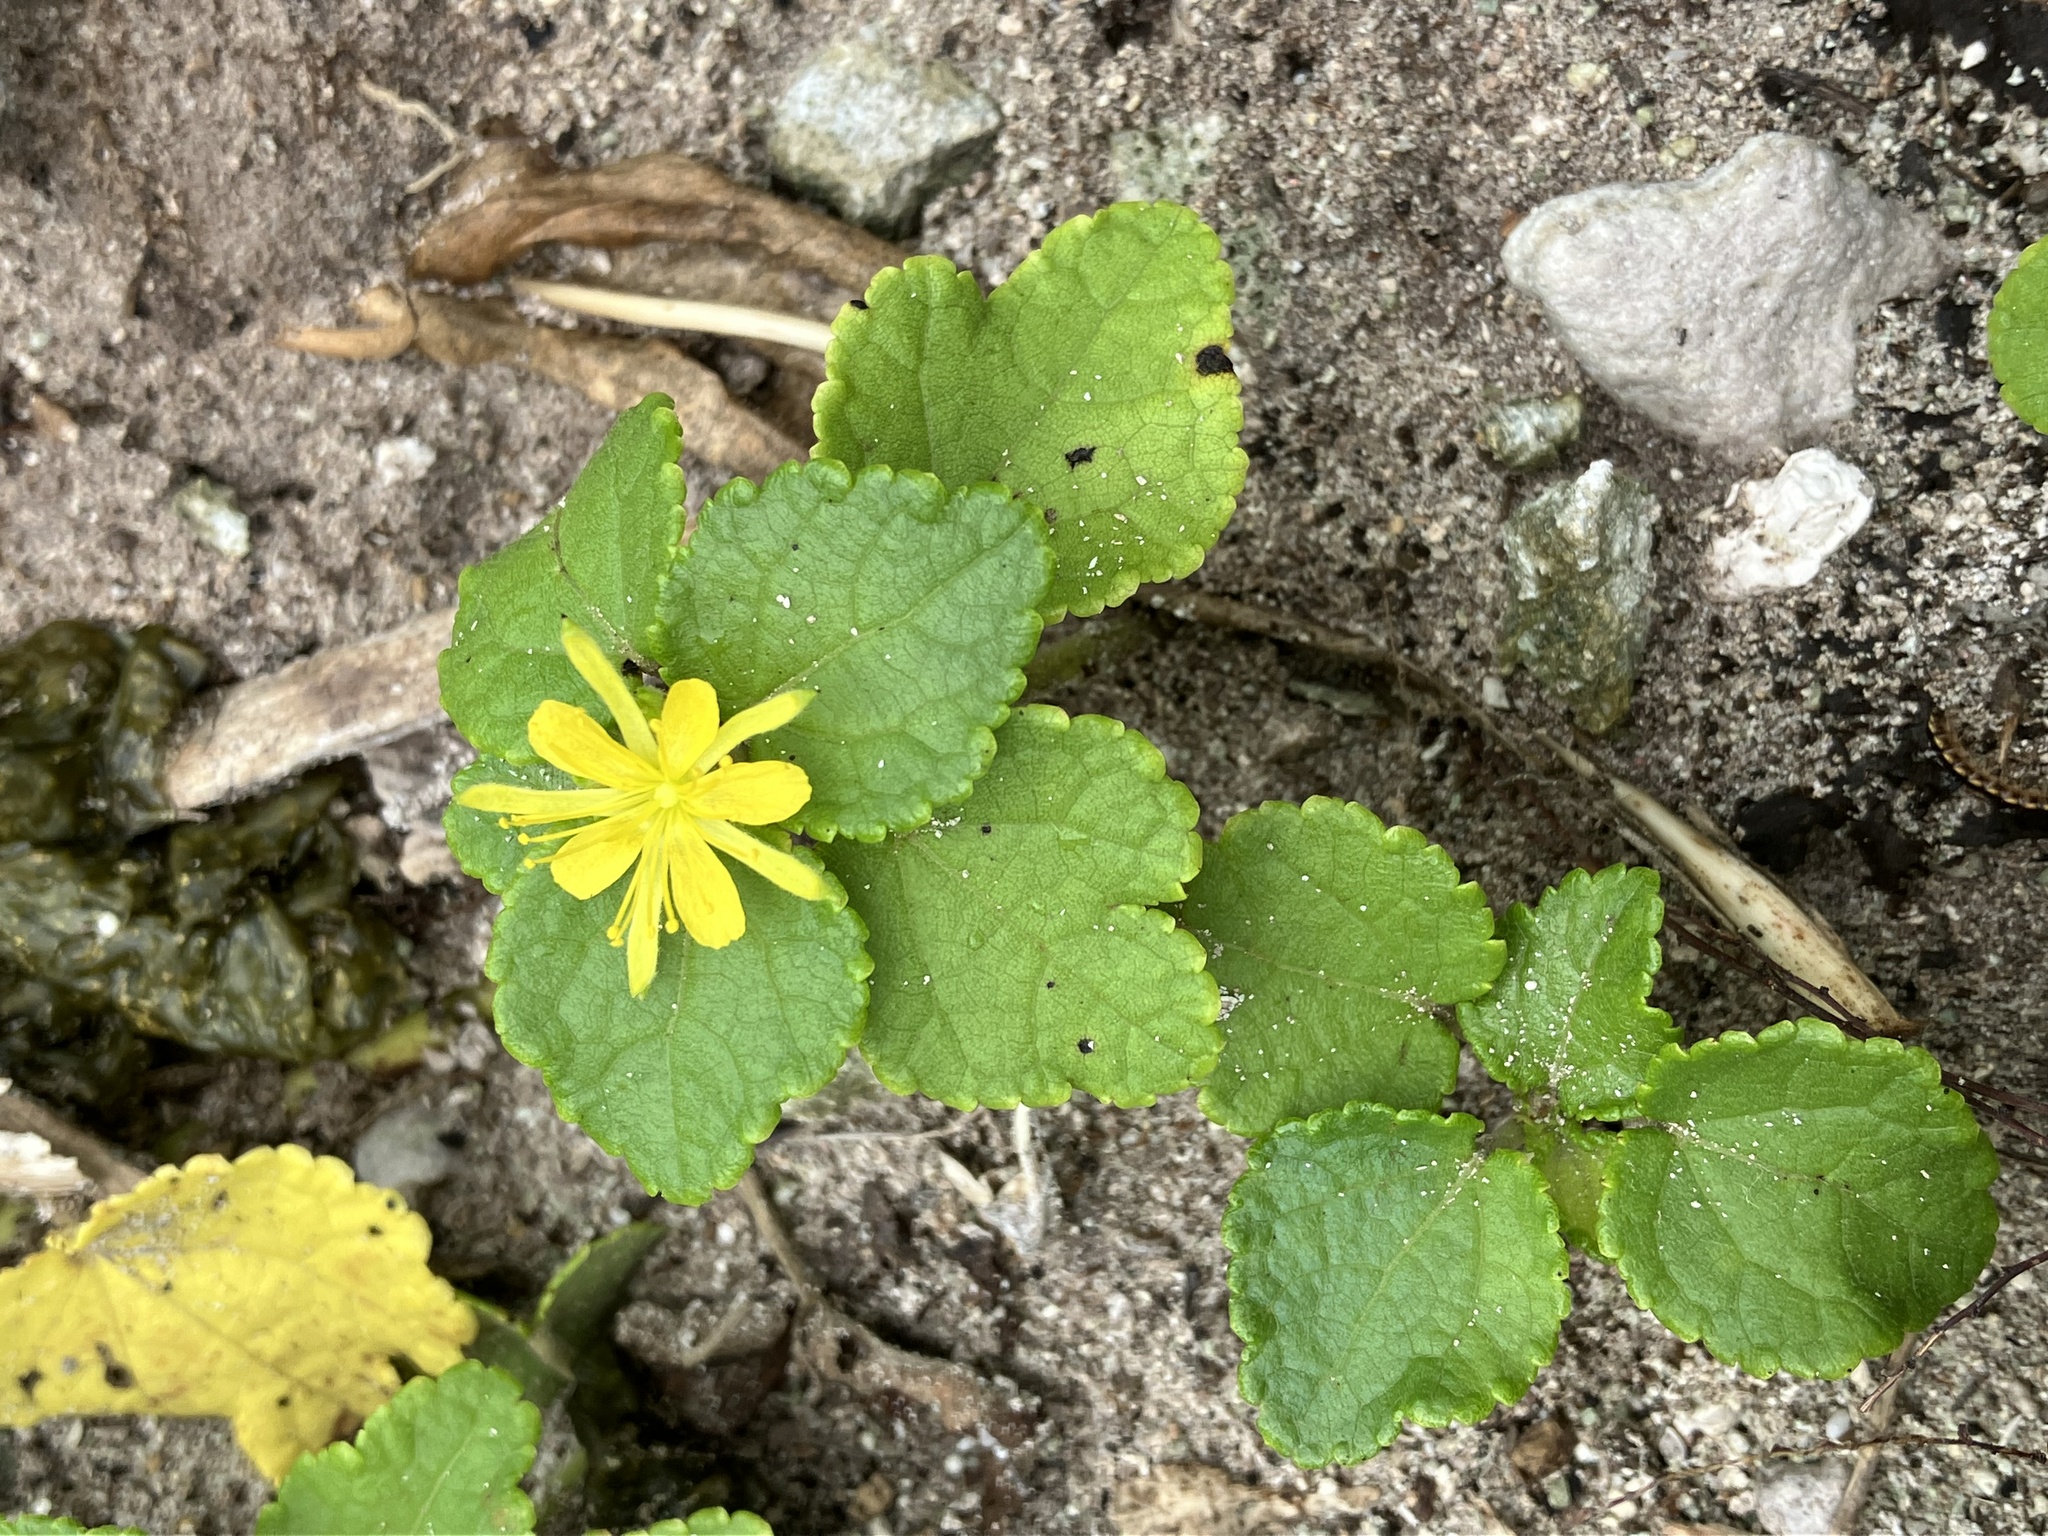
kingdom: Plantae
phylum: Tracheophyta
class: Magnoliopsida
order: Malvales
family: Malvaceae
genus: Triumfetta
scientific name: Triumfetta procumbens
